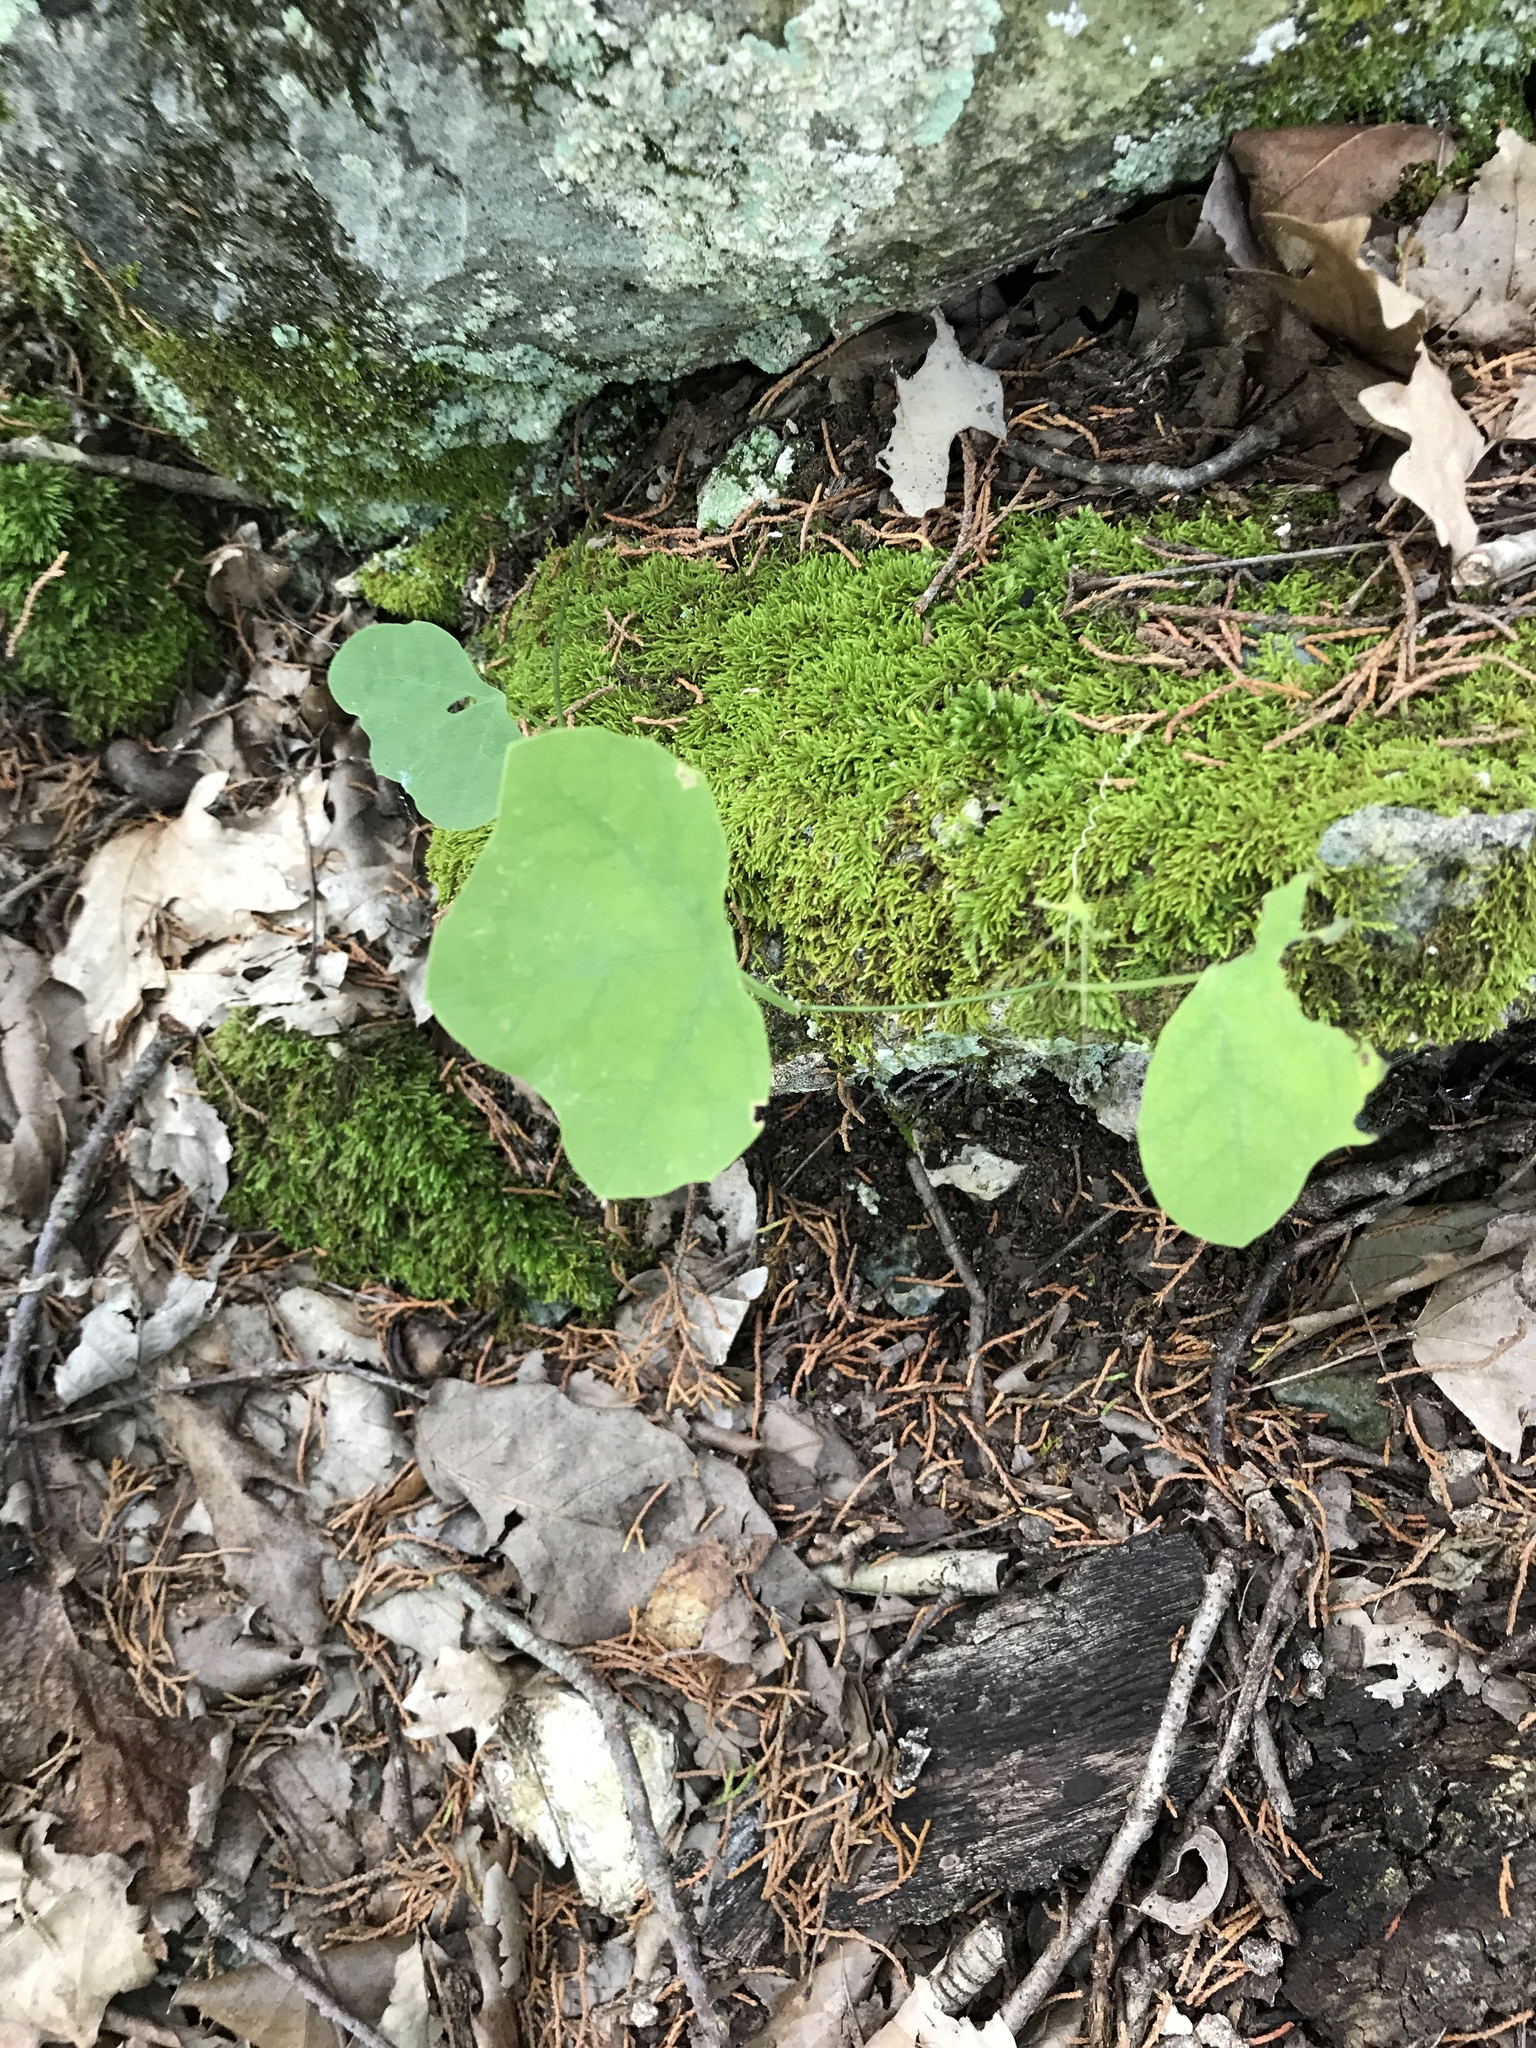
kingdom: Plantae
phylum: Tracheophyta
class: Magnoliopsida
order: Malpighiales
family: Passifloraceae
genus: Passiflora
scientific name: Passiflora lutea
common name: Yellow passionflower
